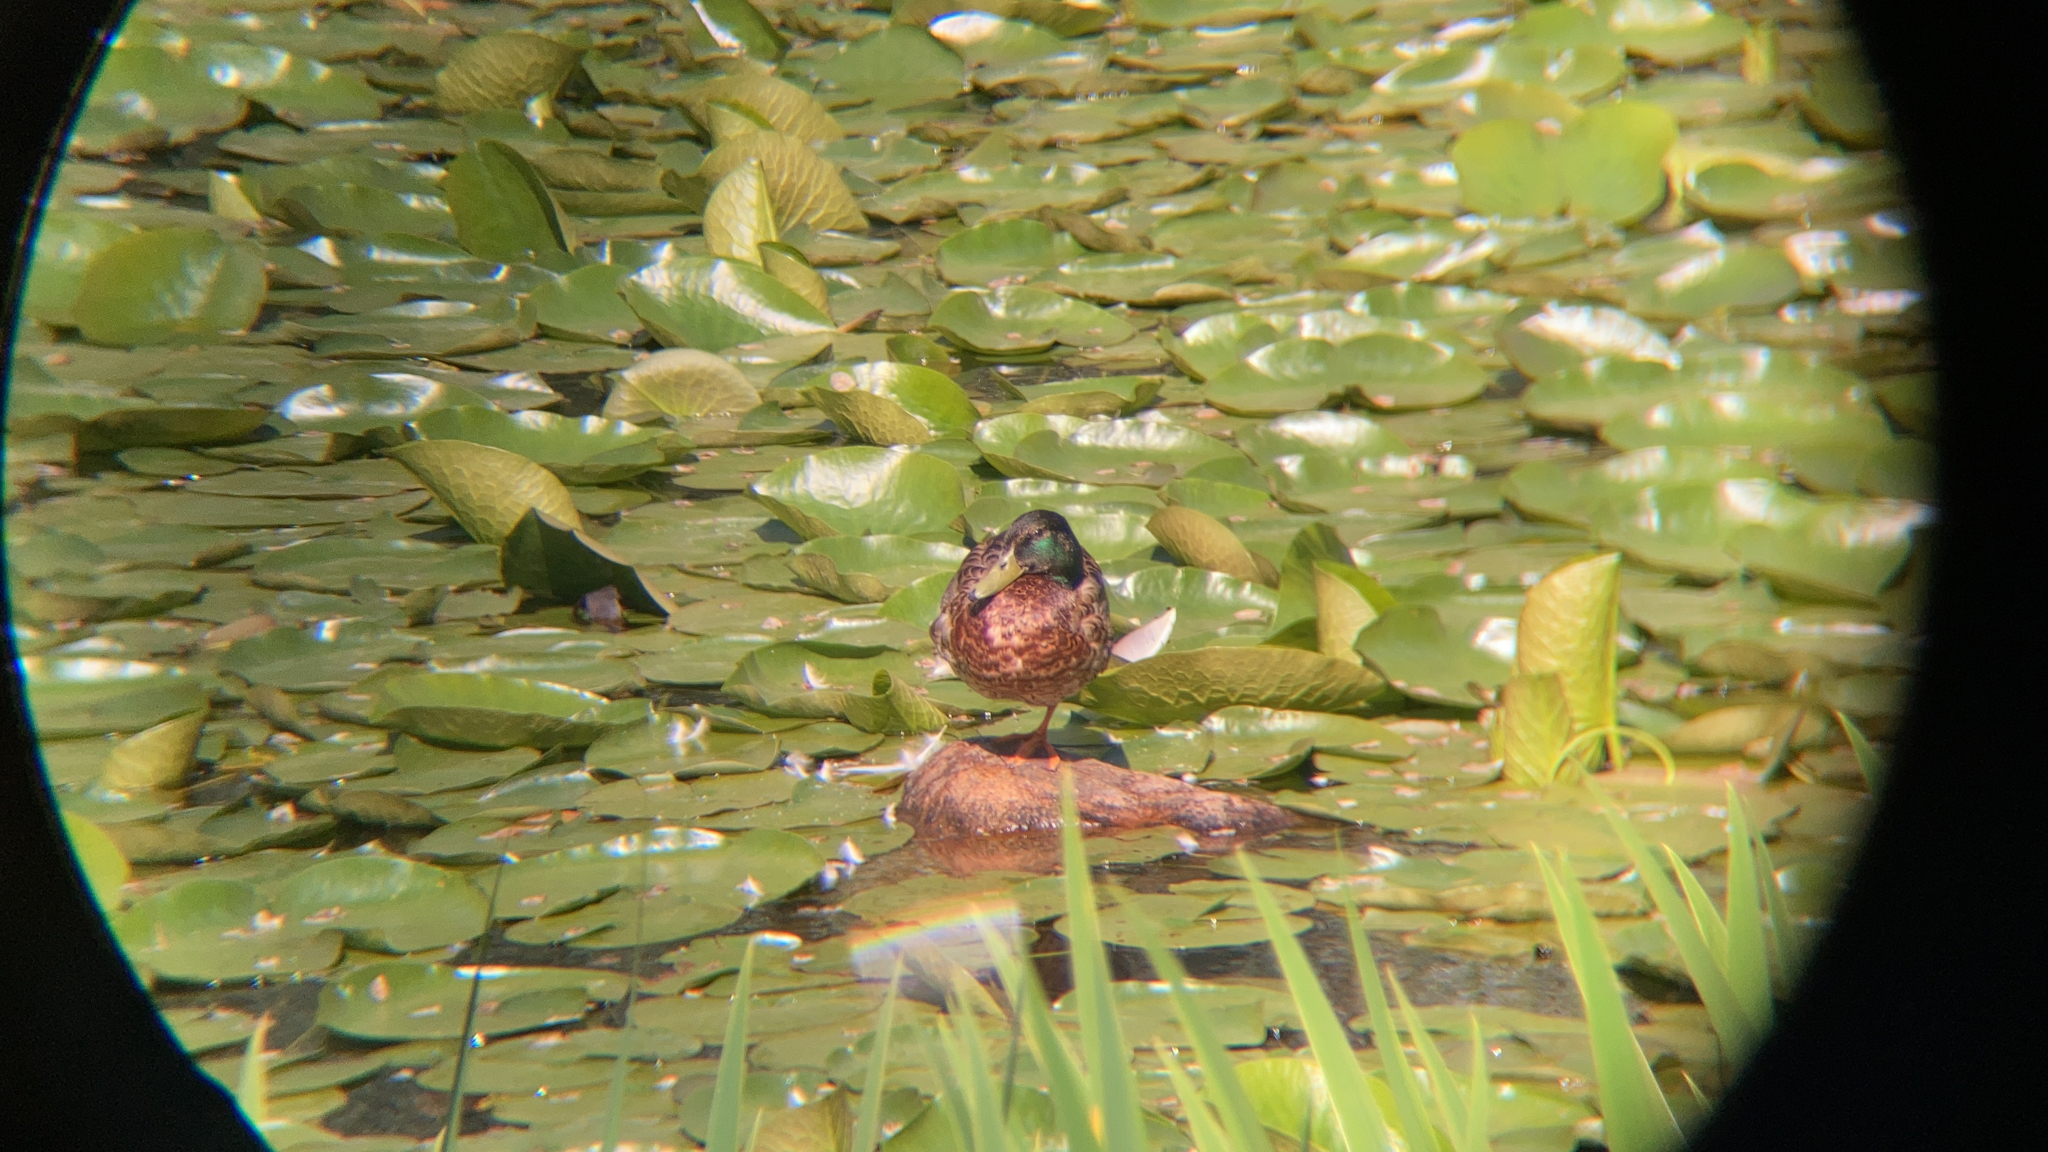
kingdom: Animalia
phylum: Chordata
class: Aves
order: Anseriformes
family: Anatidae
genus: Anas
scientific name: Anas platyrhynchos
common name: Mallard
